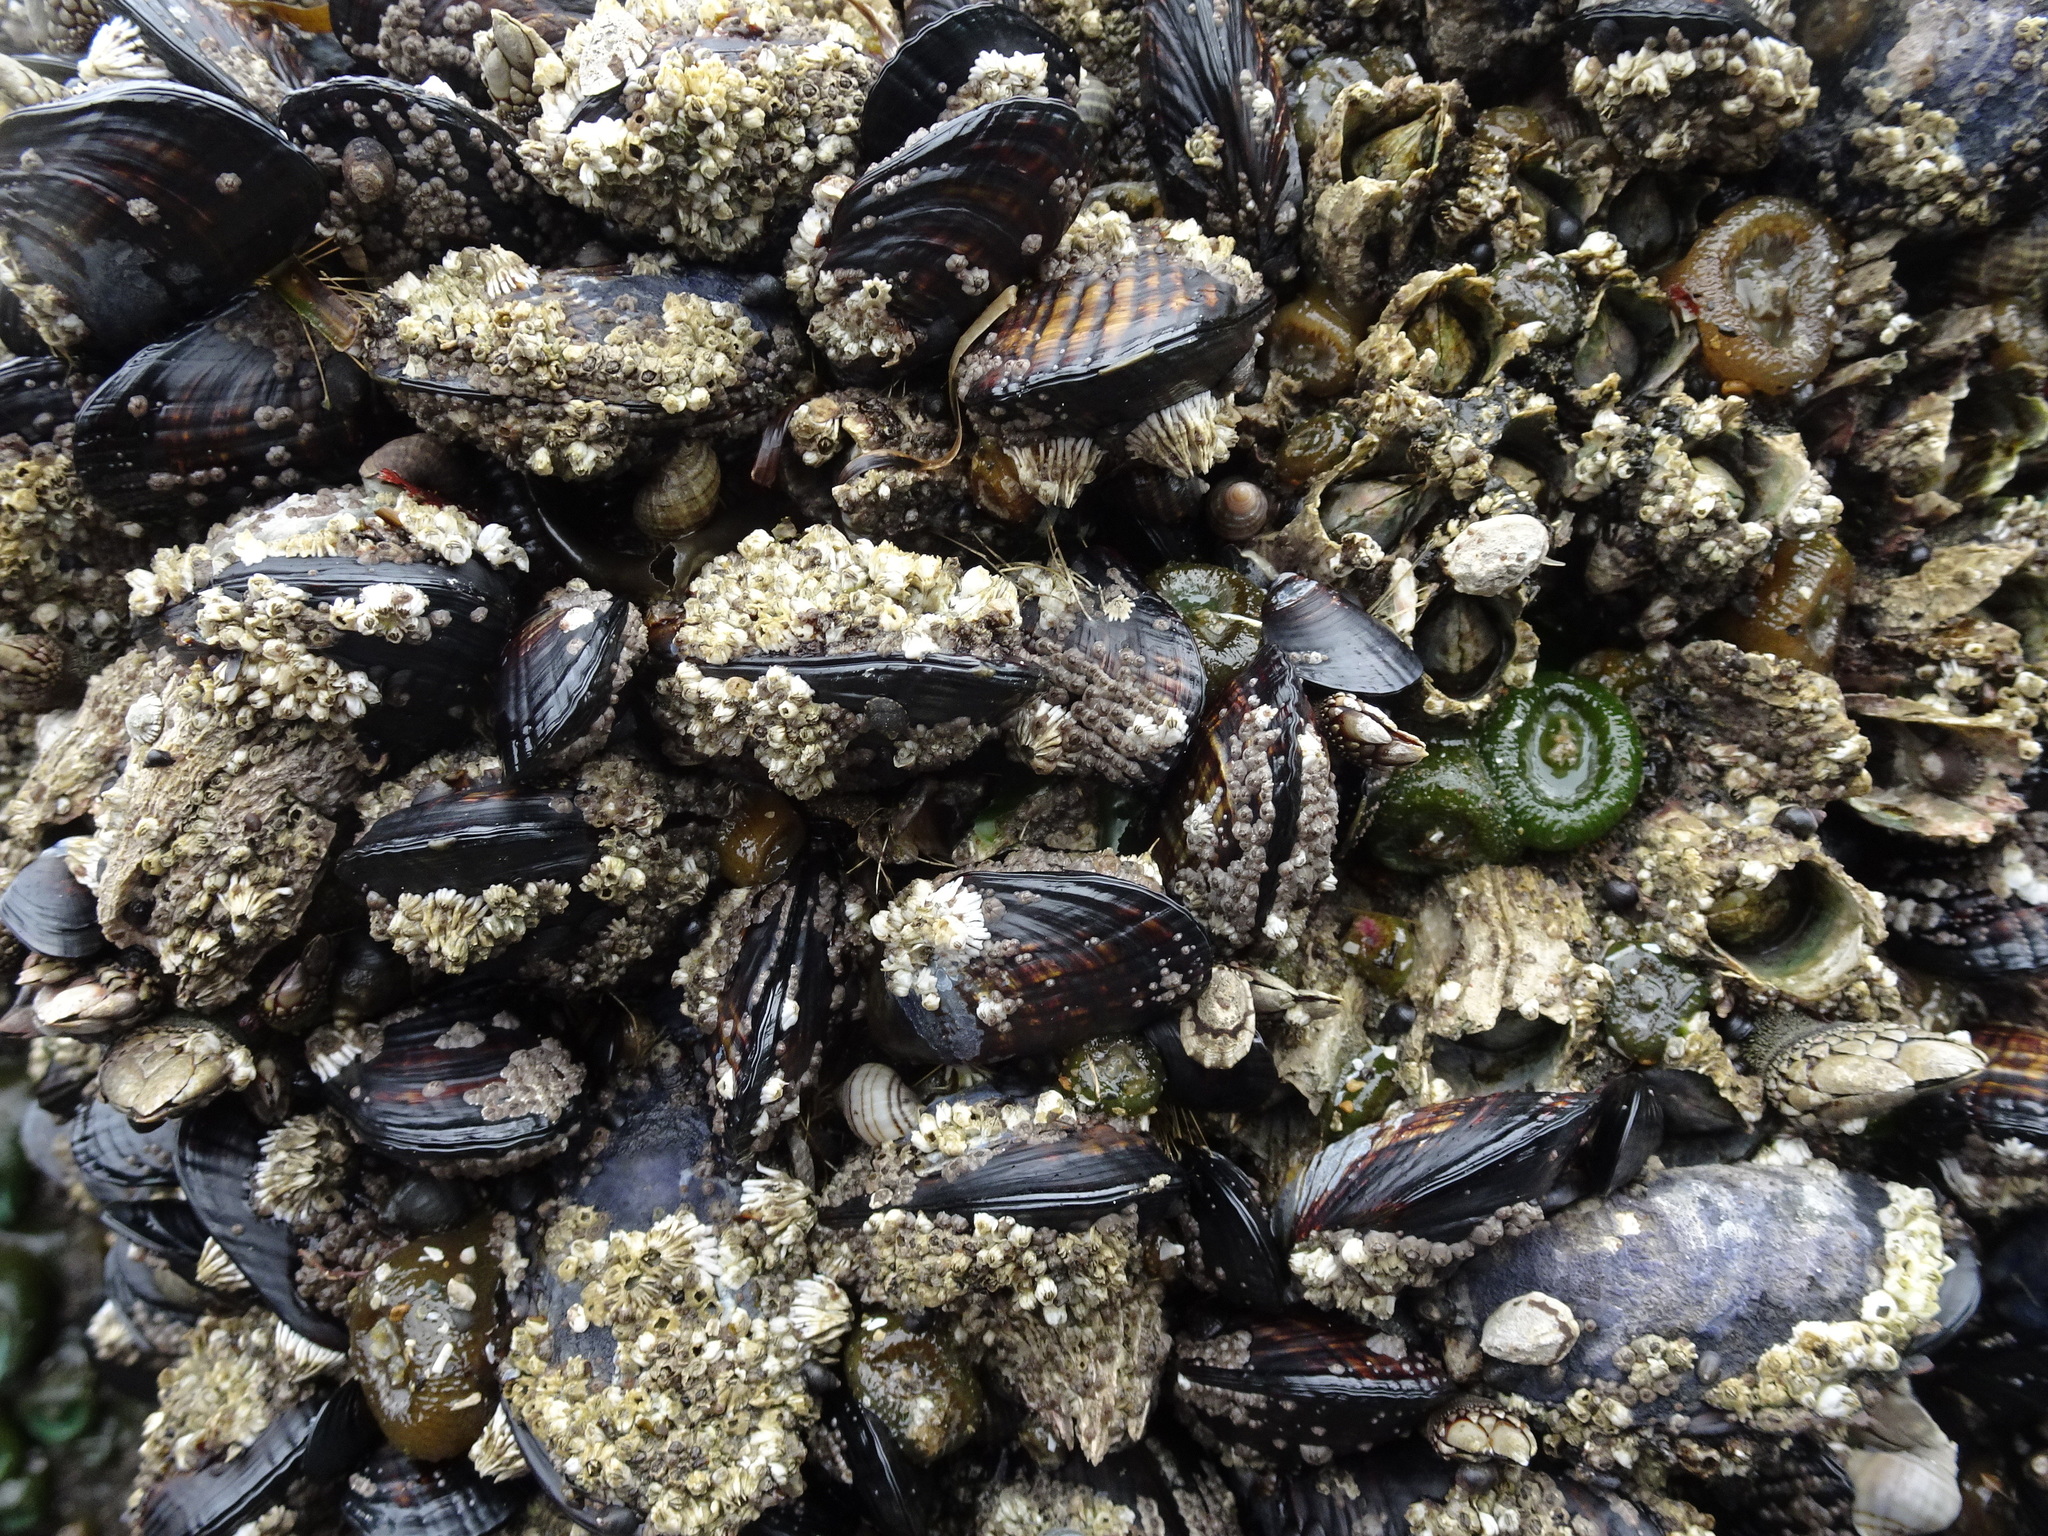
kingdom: Animalia
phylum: Mollusca
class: Bivalvia
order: Mytilida
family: Mytilidae
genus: Mytilus
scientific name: Mytilus californianus
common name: California mussel
